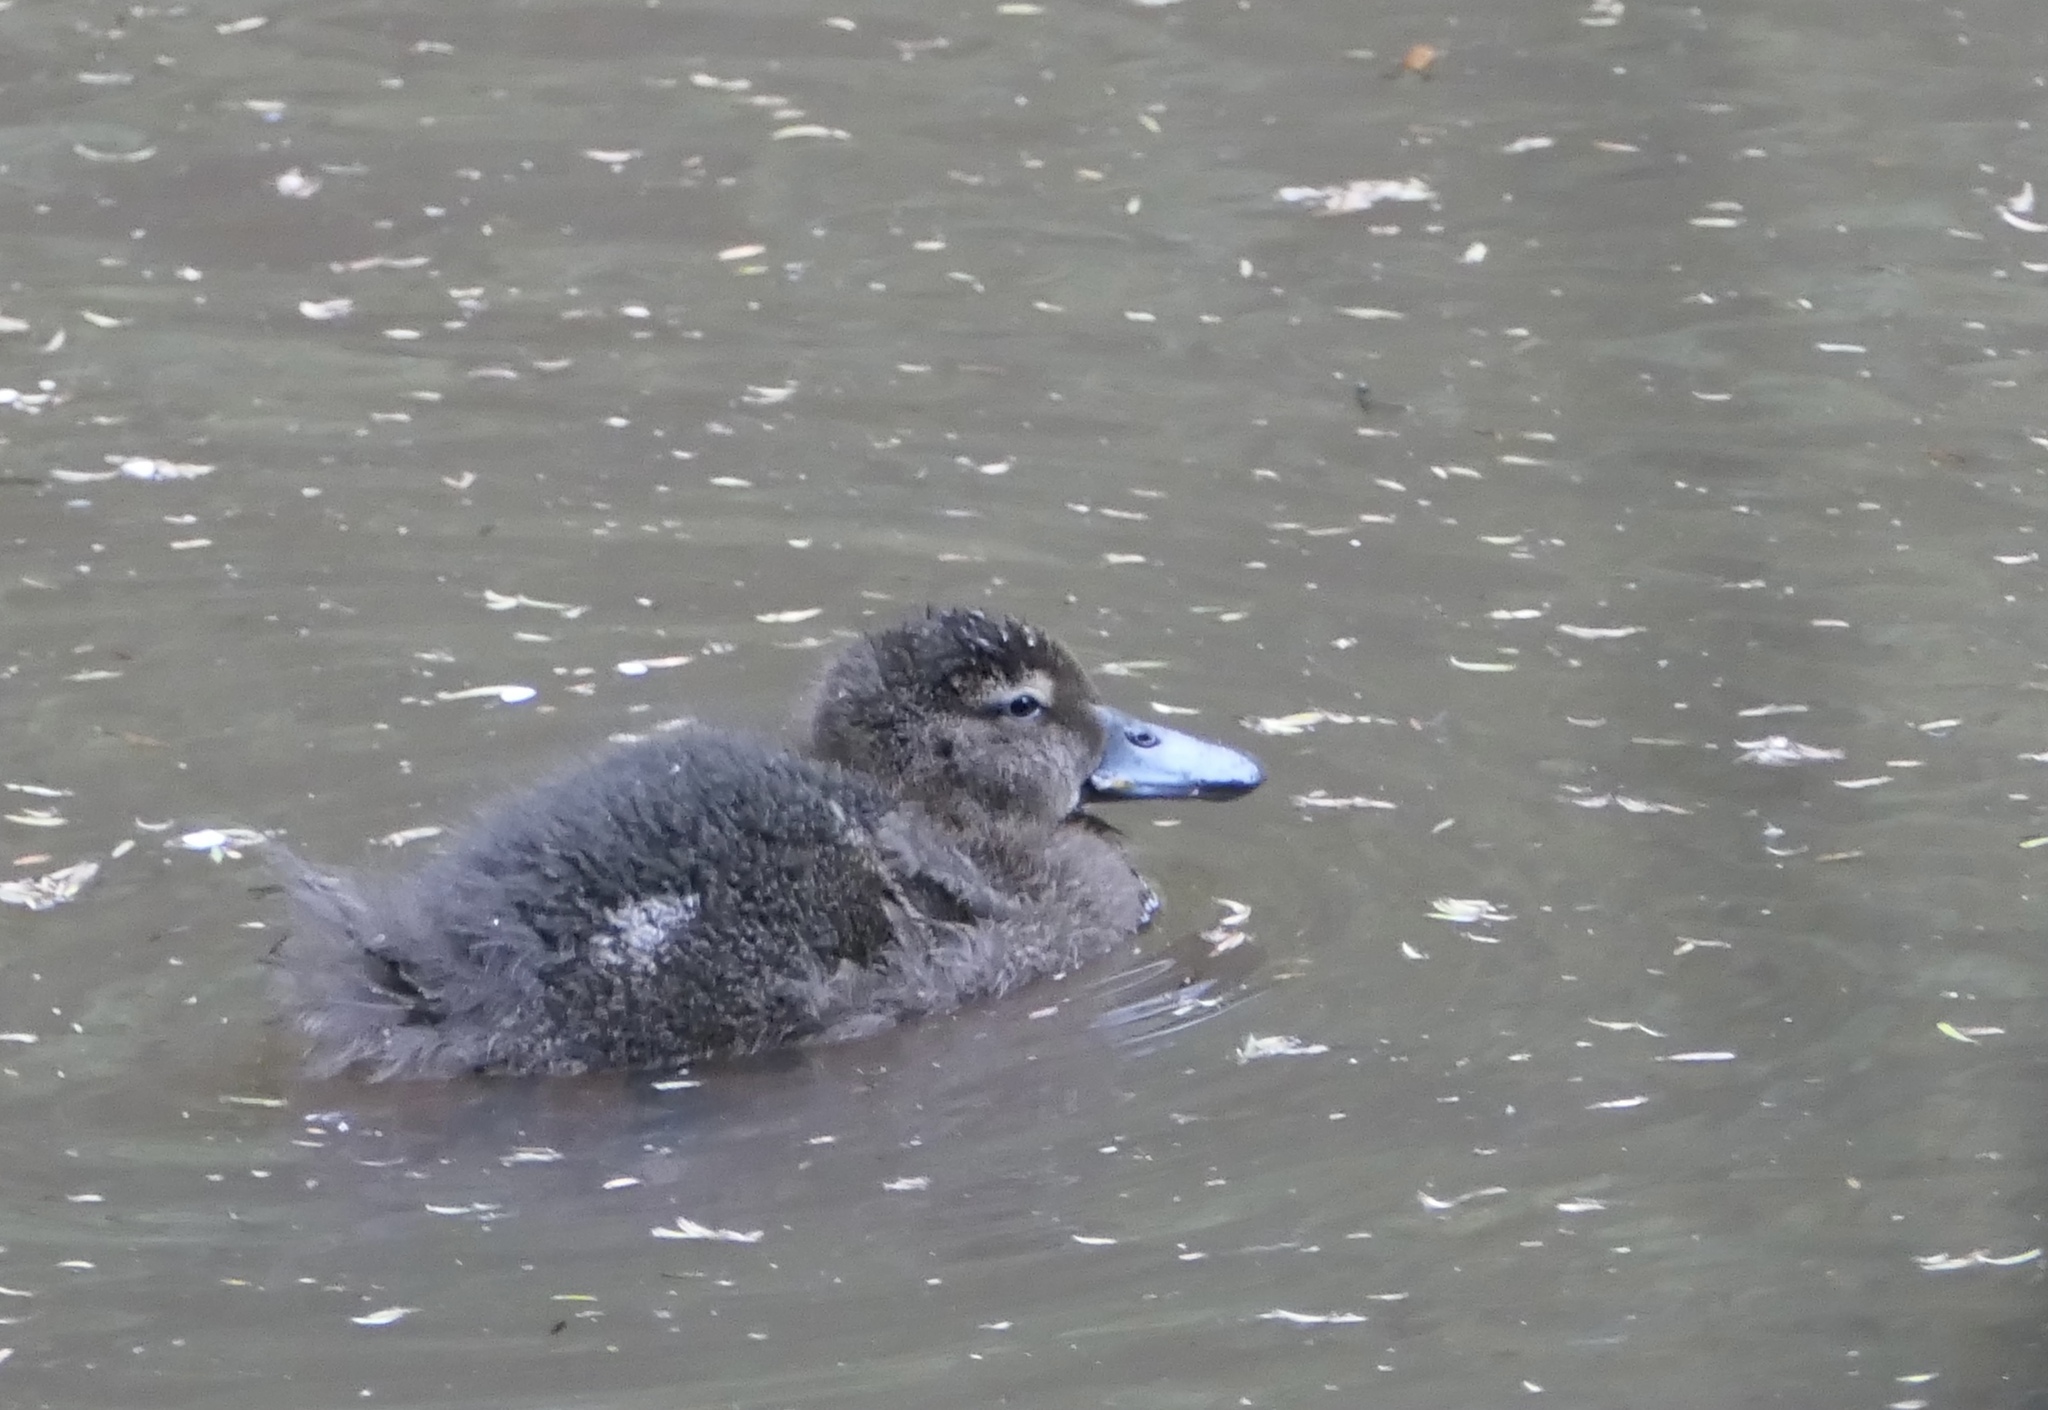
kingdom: Animalia
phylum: Chordata
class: Aves
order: Anseriformes
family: Anatidae
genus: Anas
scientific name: Anas chlorotis
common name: Brown teal
